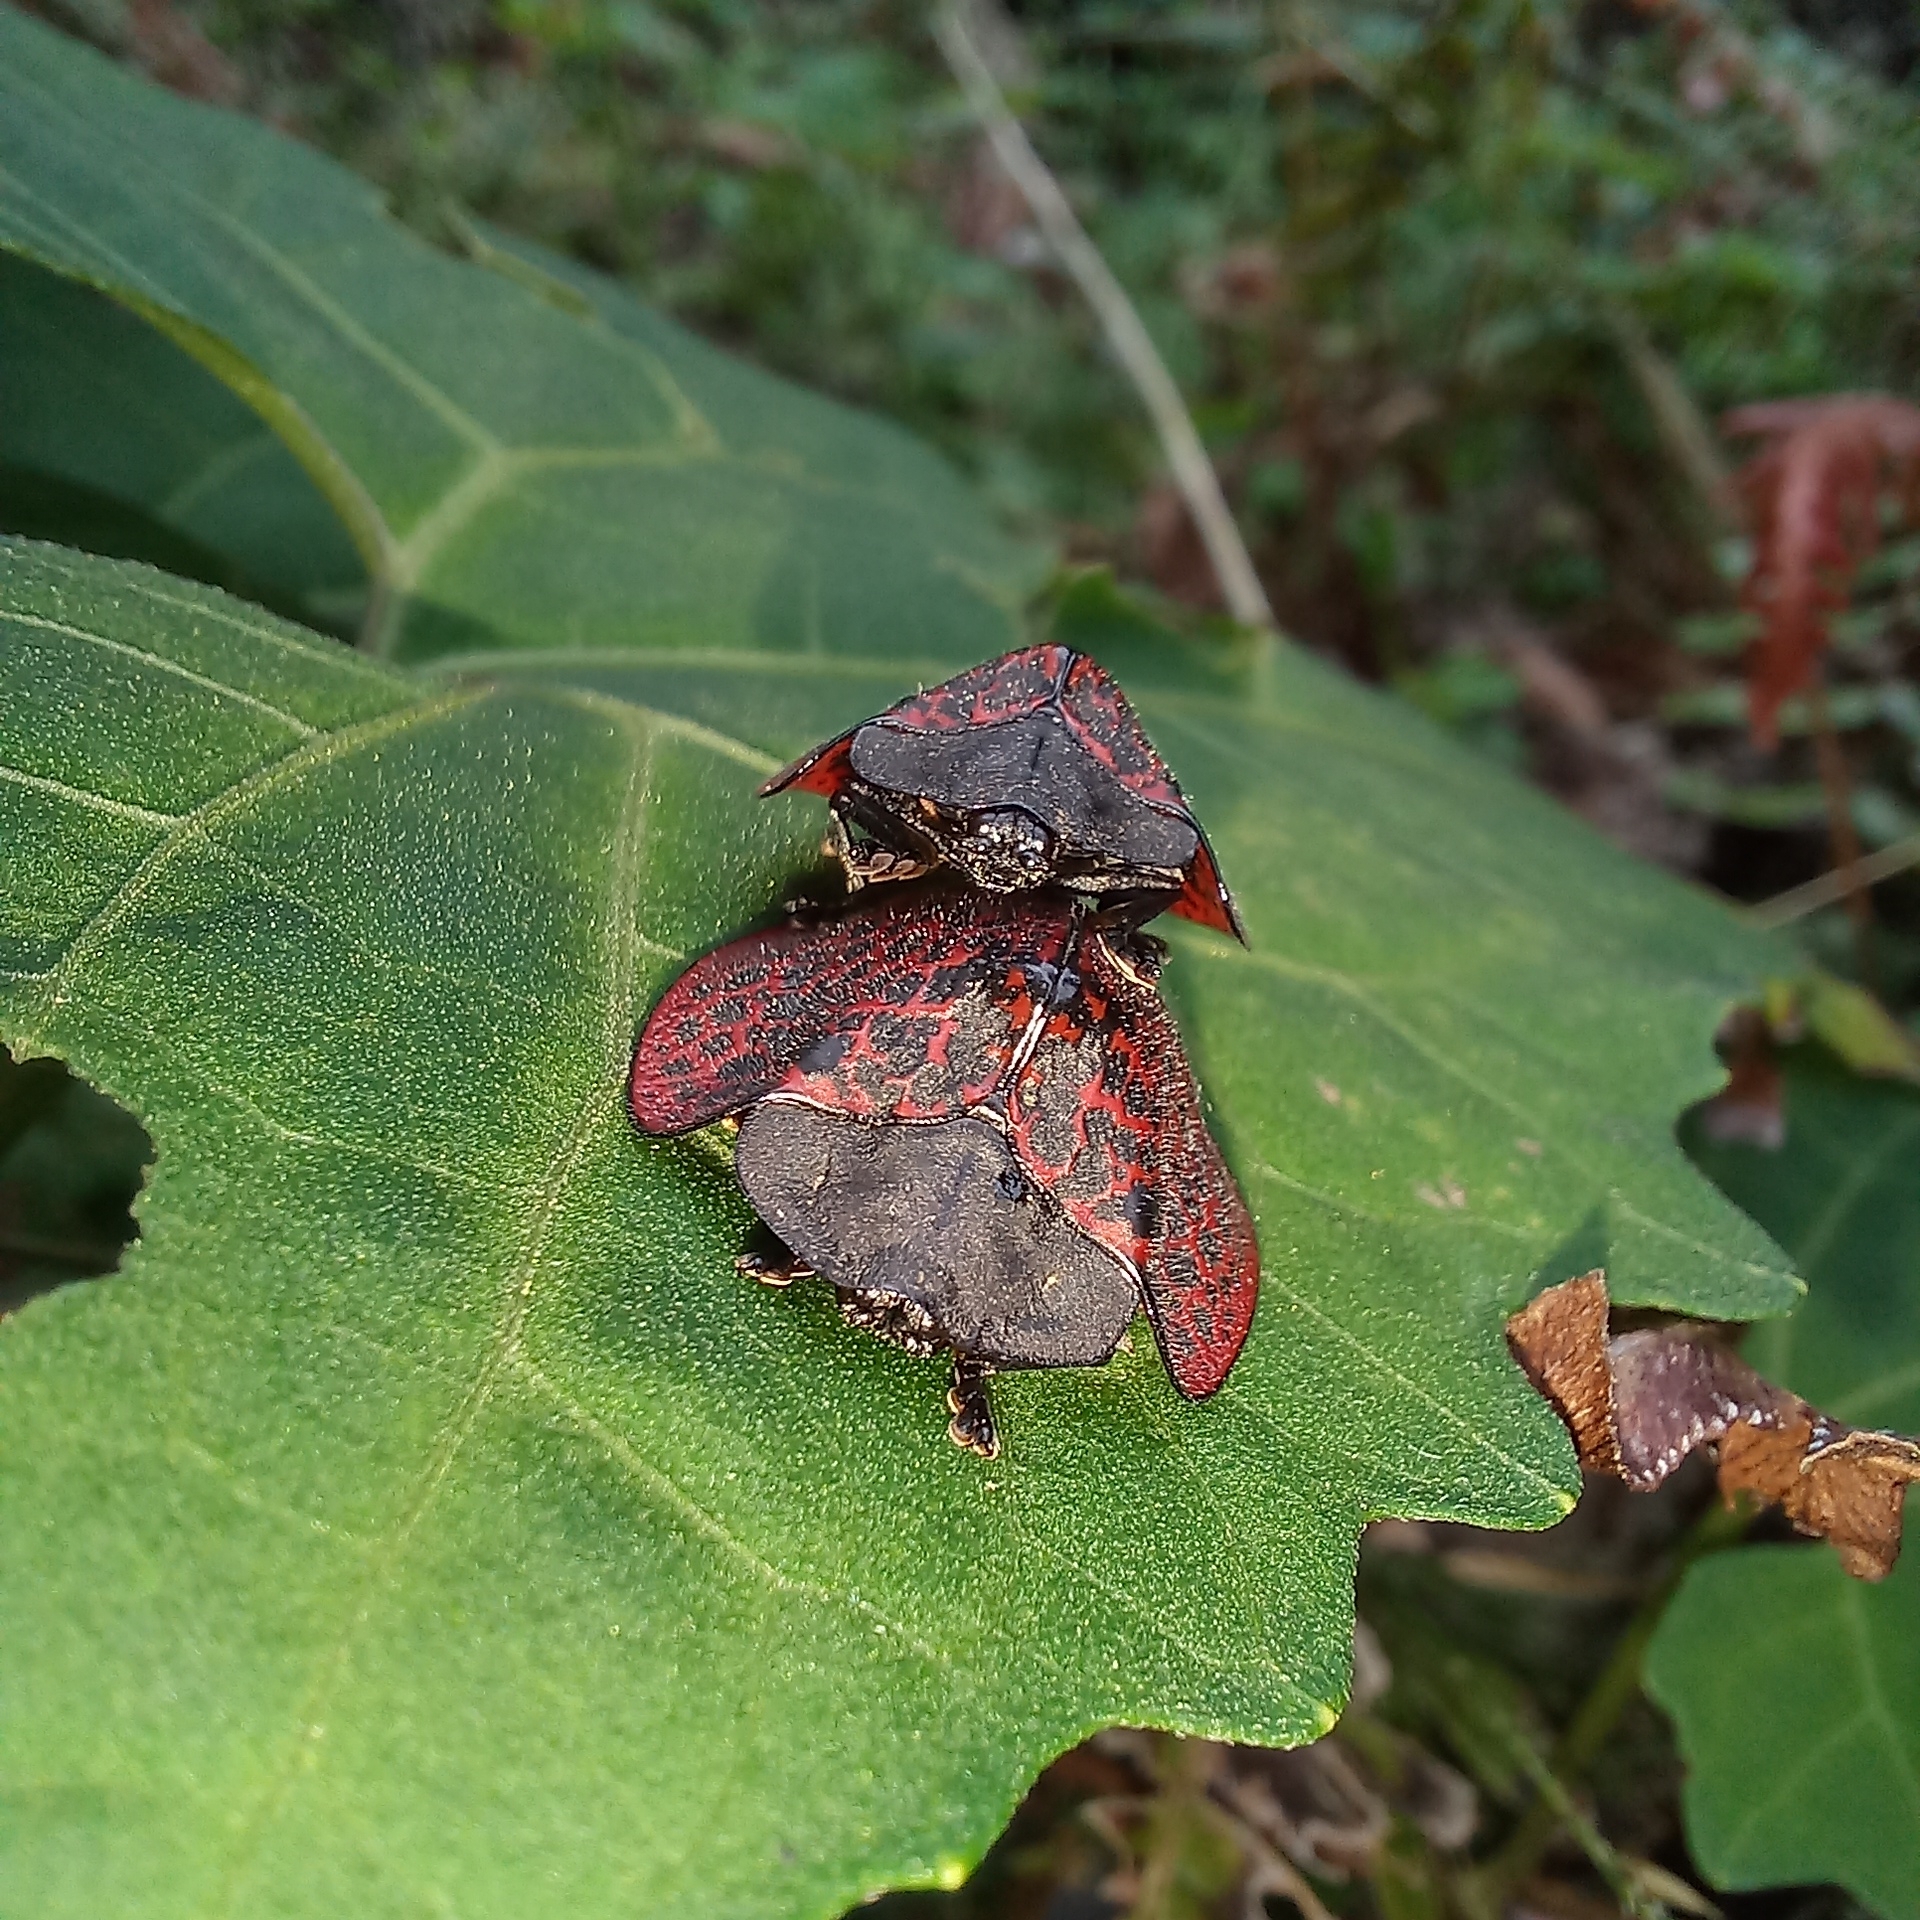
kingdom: Animalia
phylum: Arthropoda
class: Insecta
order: Coleoptera
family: Chrysomelidae
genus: Cyrtonota
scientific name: Cyrtonota textilis
